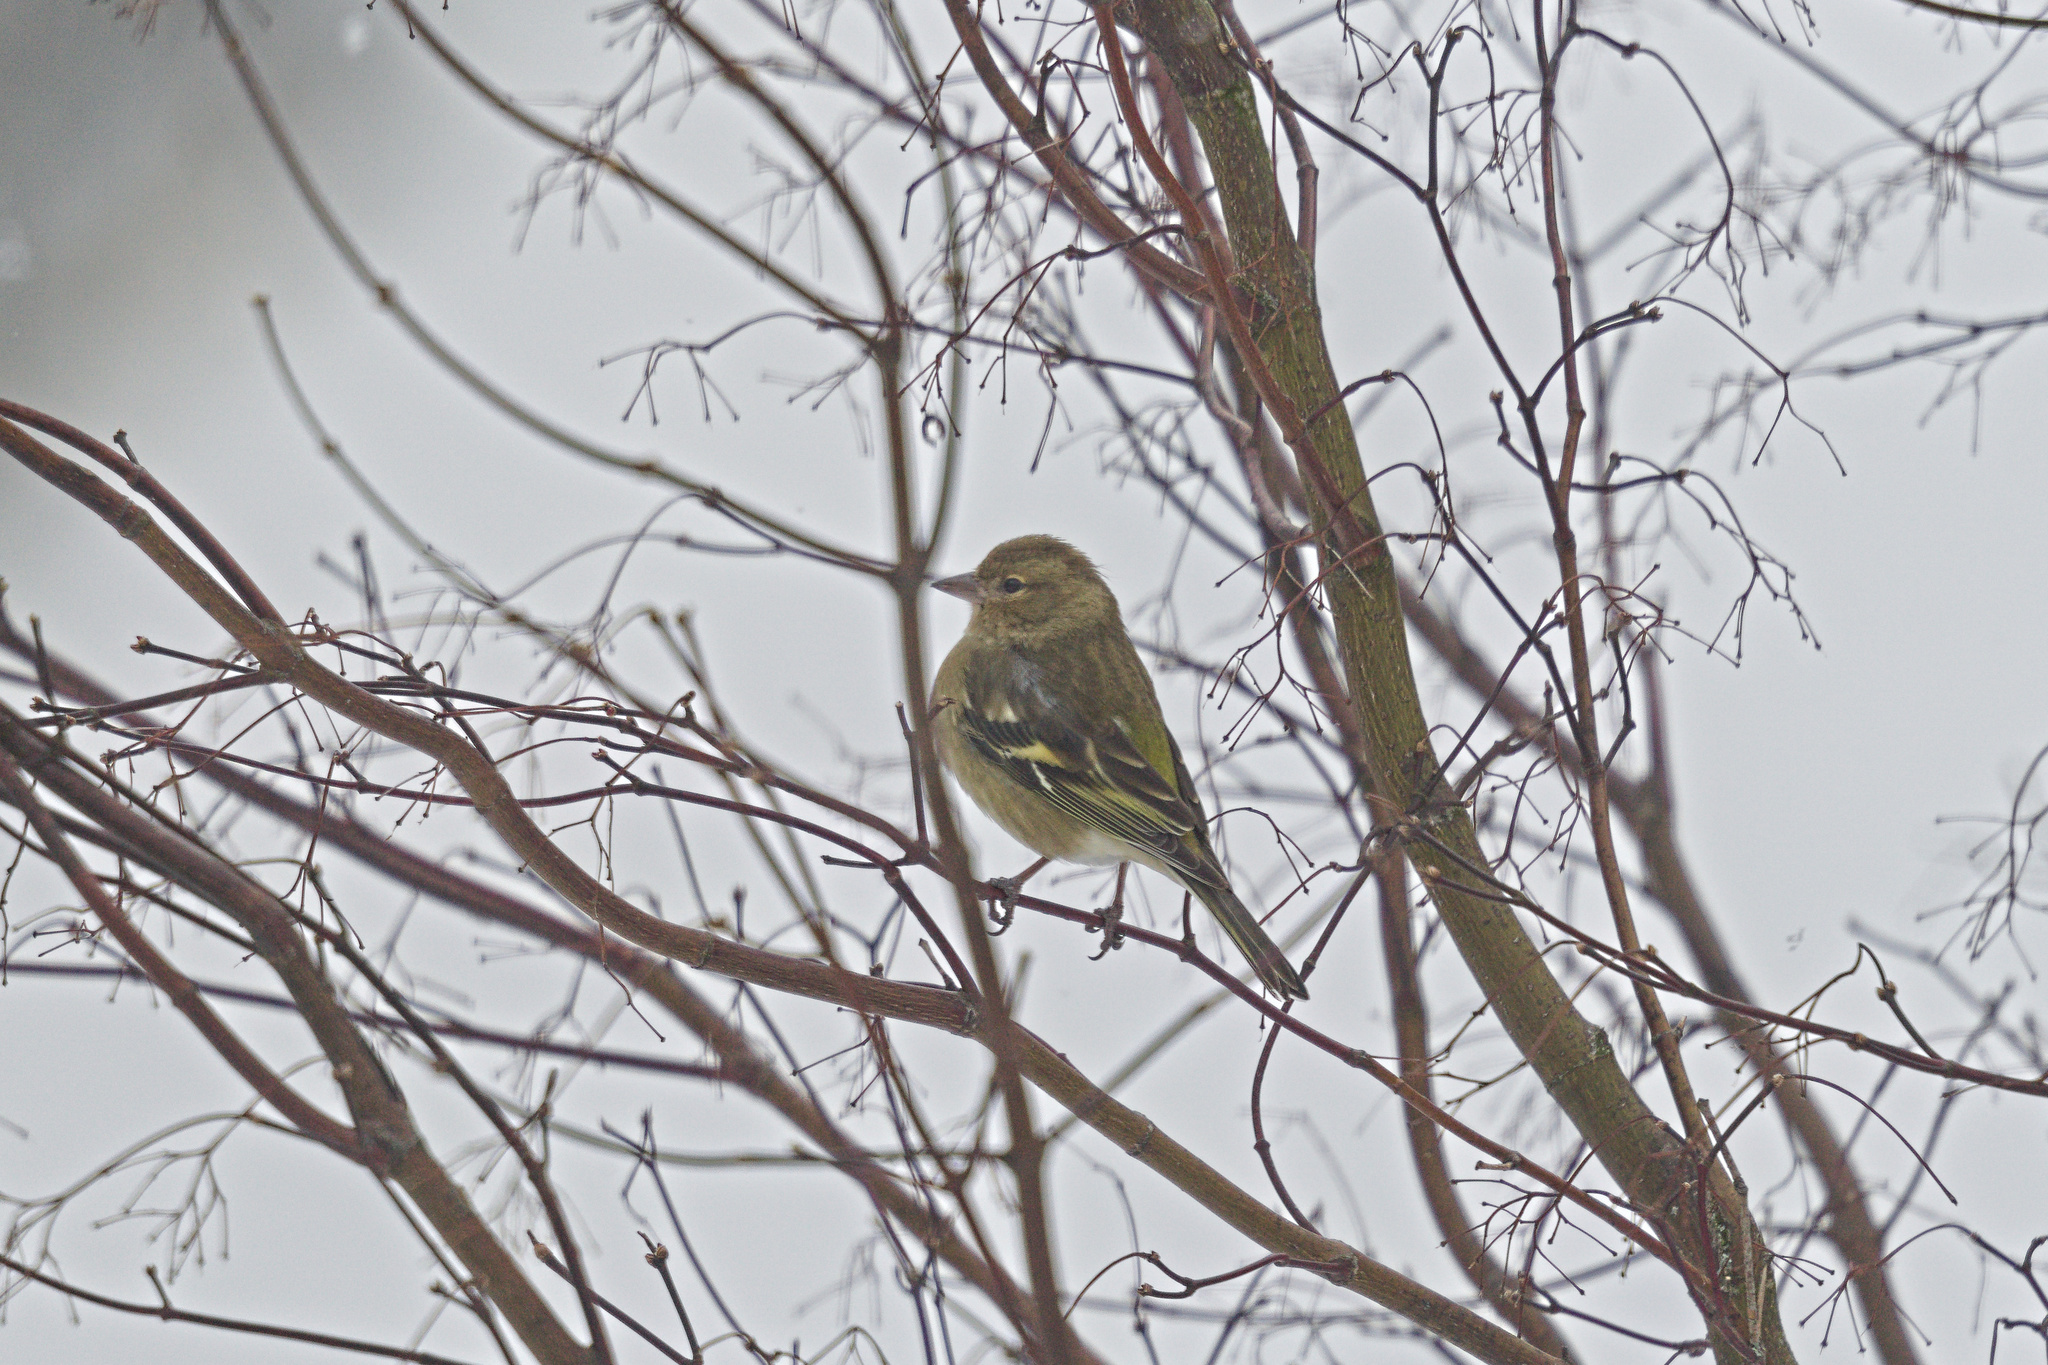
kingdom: Animalia
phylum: Chordata
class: Aves
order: Passeriformes
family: Fringillidae
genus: Fringilla
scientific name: Fringilla coelebs
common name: Common chaffinch
